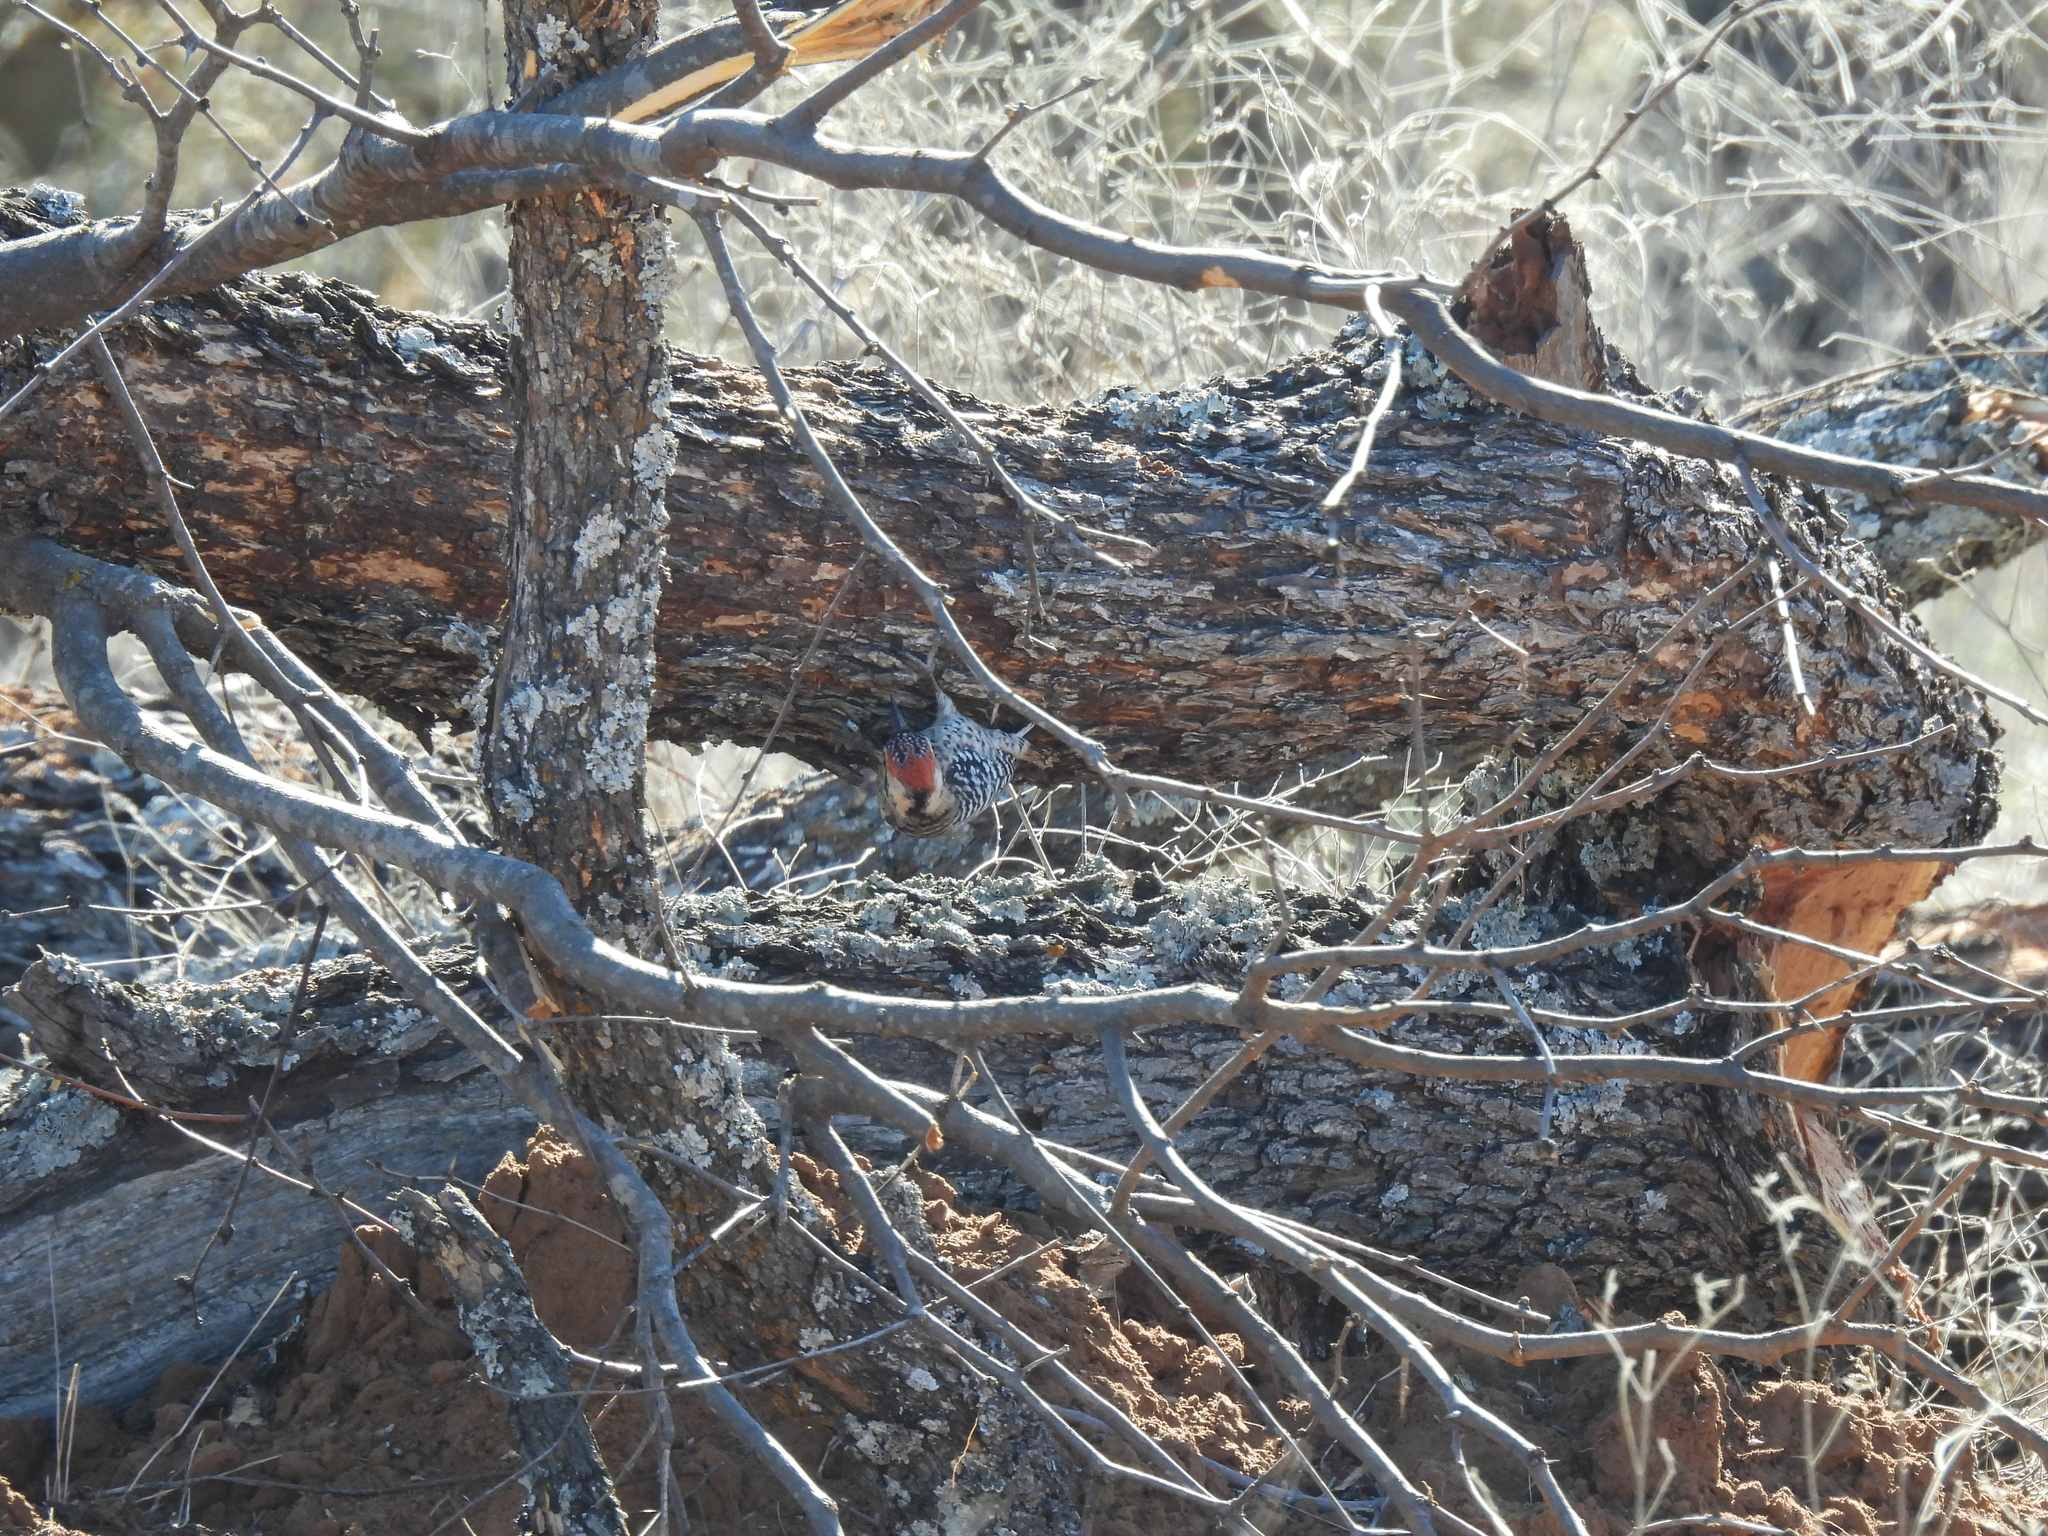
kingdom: Animalia
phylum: Chordata
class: Aves
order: Piciformes
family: Picidae
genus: Dryobates
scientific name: Dryobates scalaris
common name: Ladder-backed woodpecker
